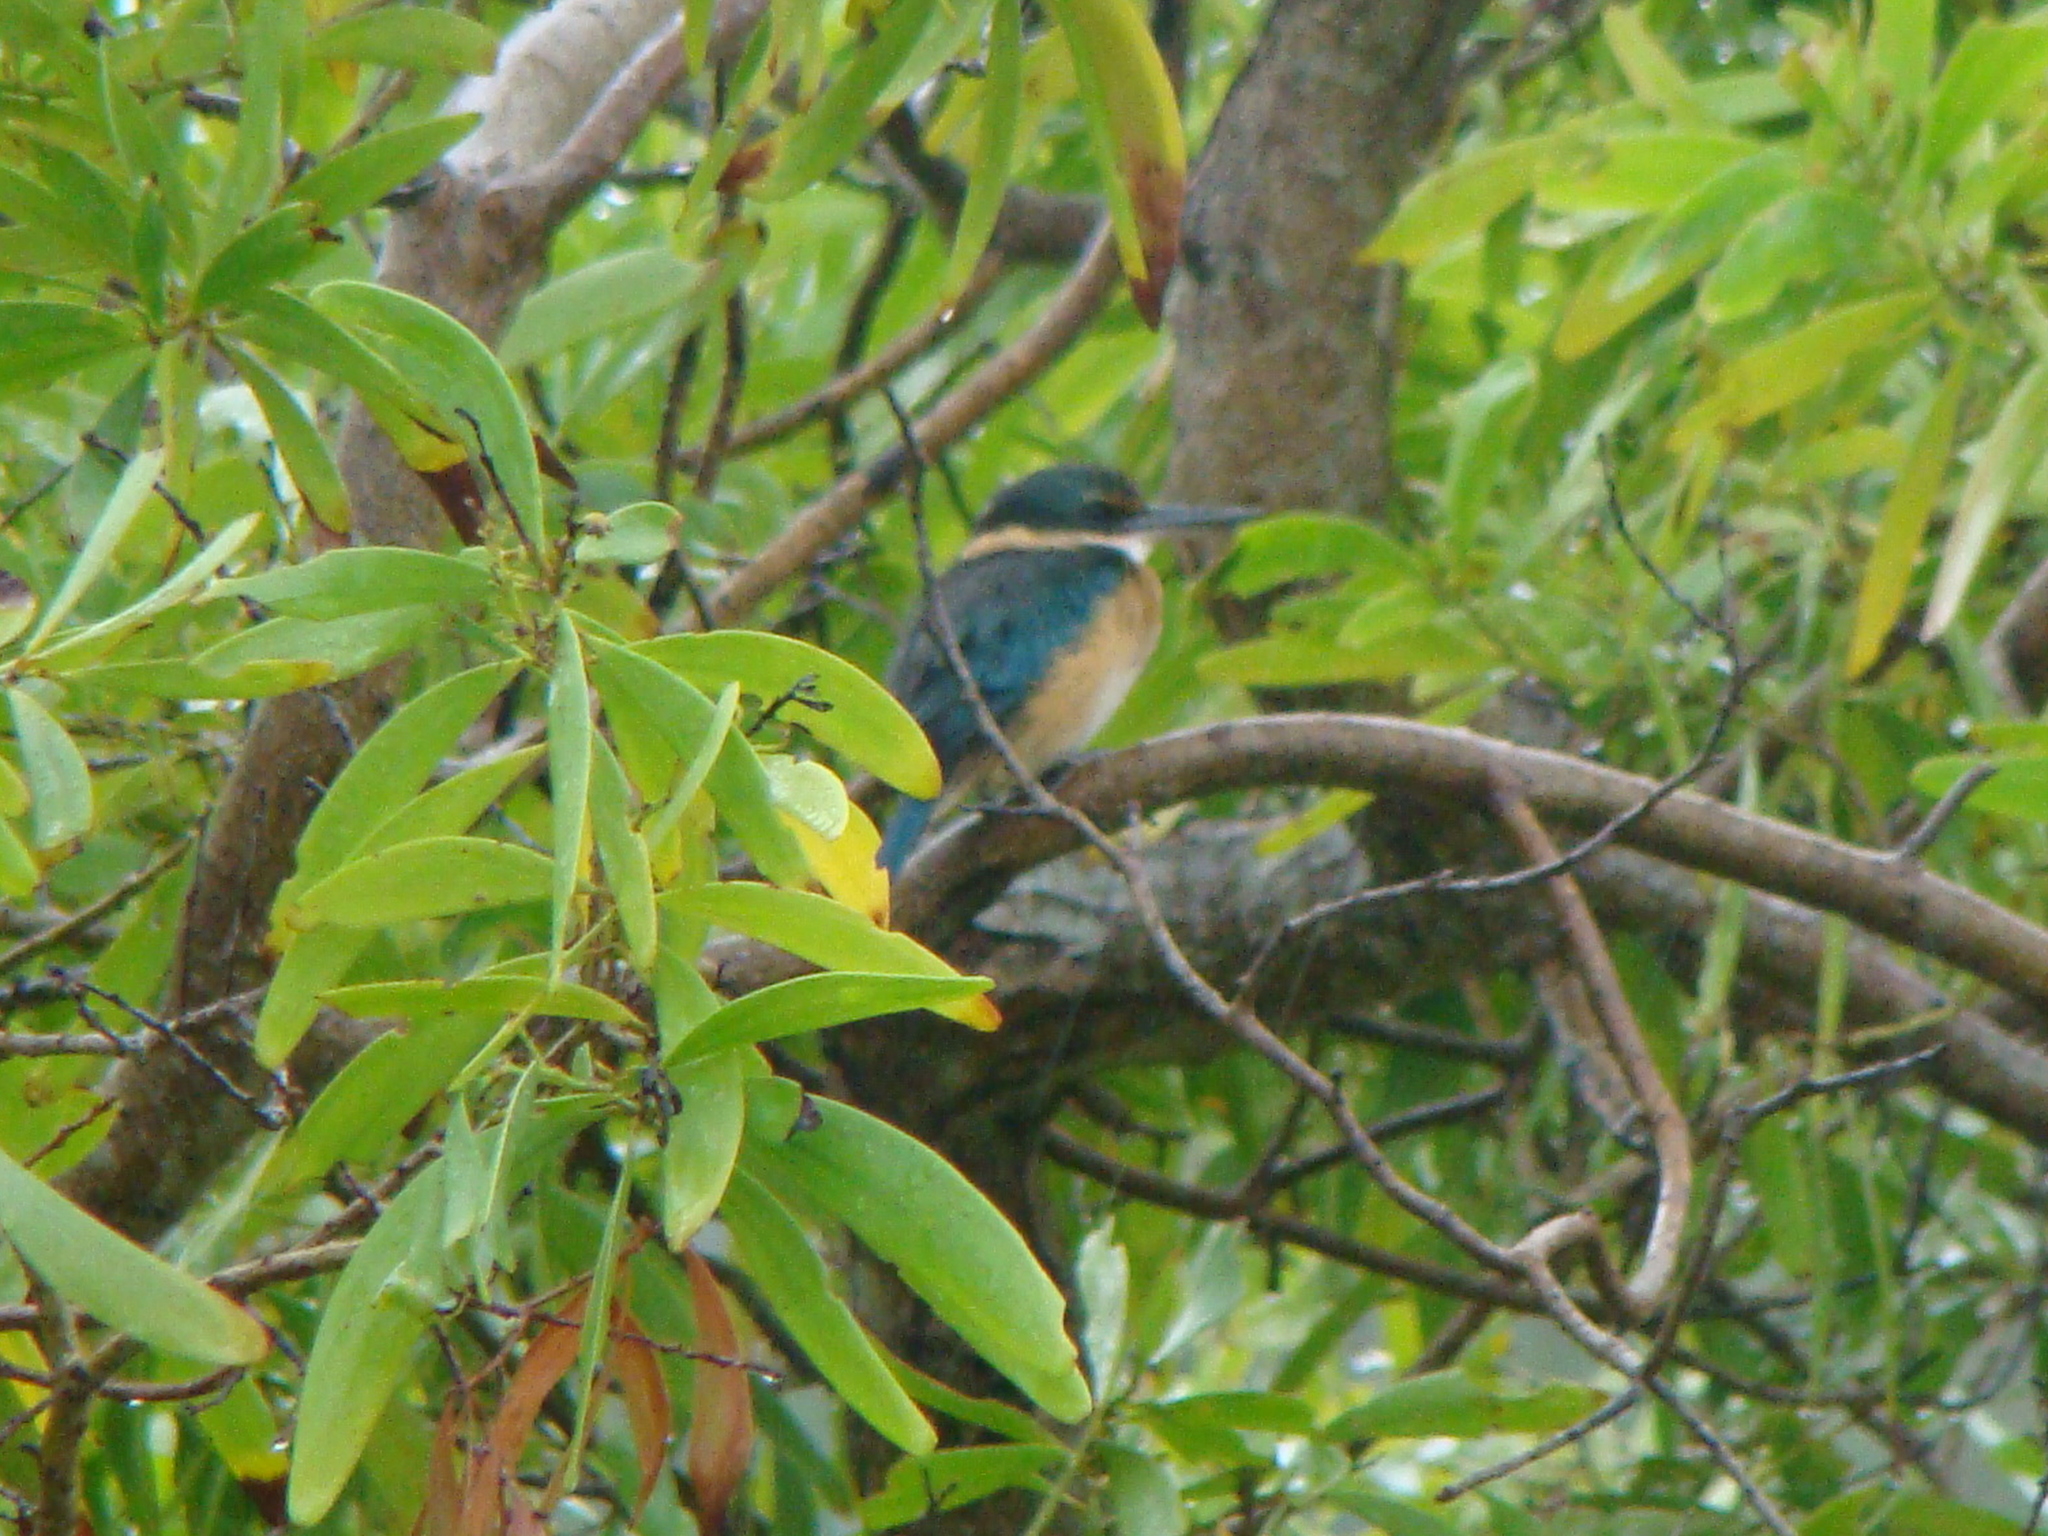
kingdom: Animalia
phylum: Chordata
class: Aves
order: Coraciiformes
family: Alcedinidae
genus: Todiramphus
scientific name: Todiramphus sanctus
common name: Sacred kingfisher
